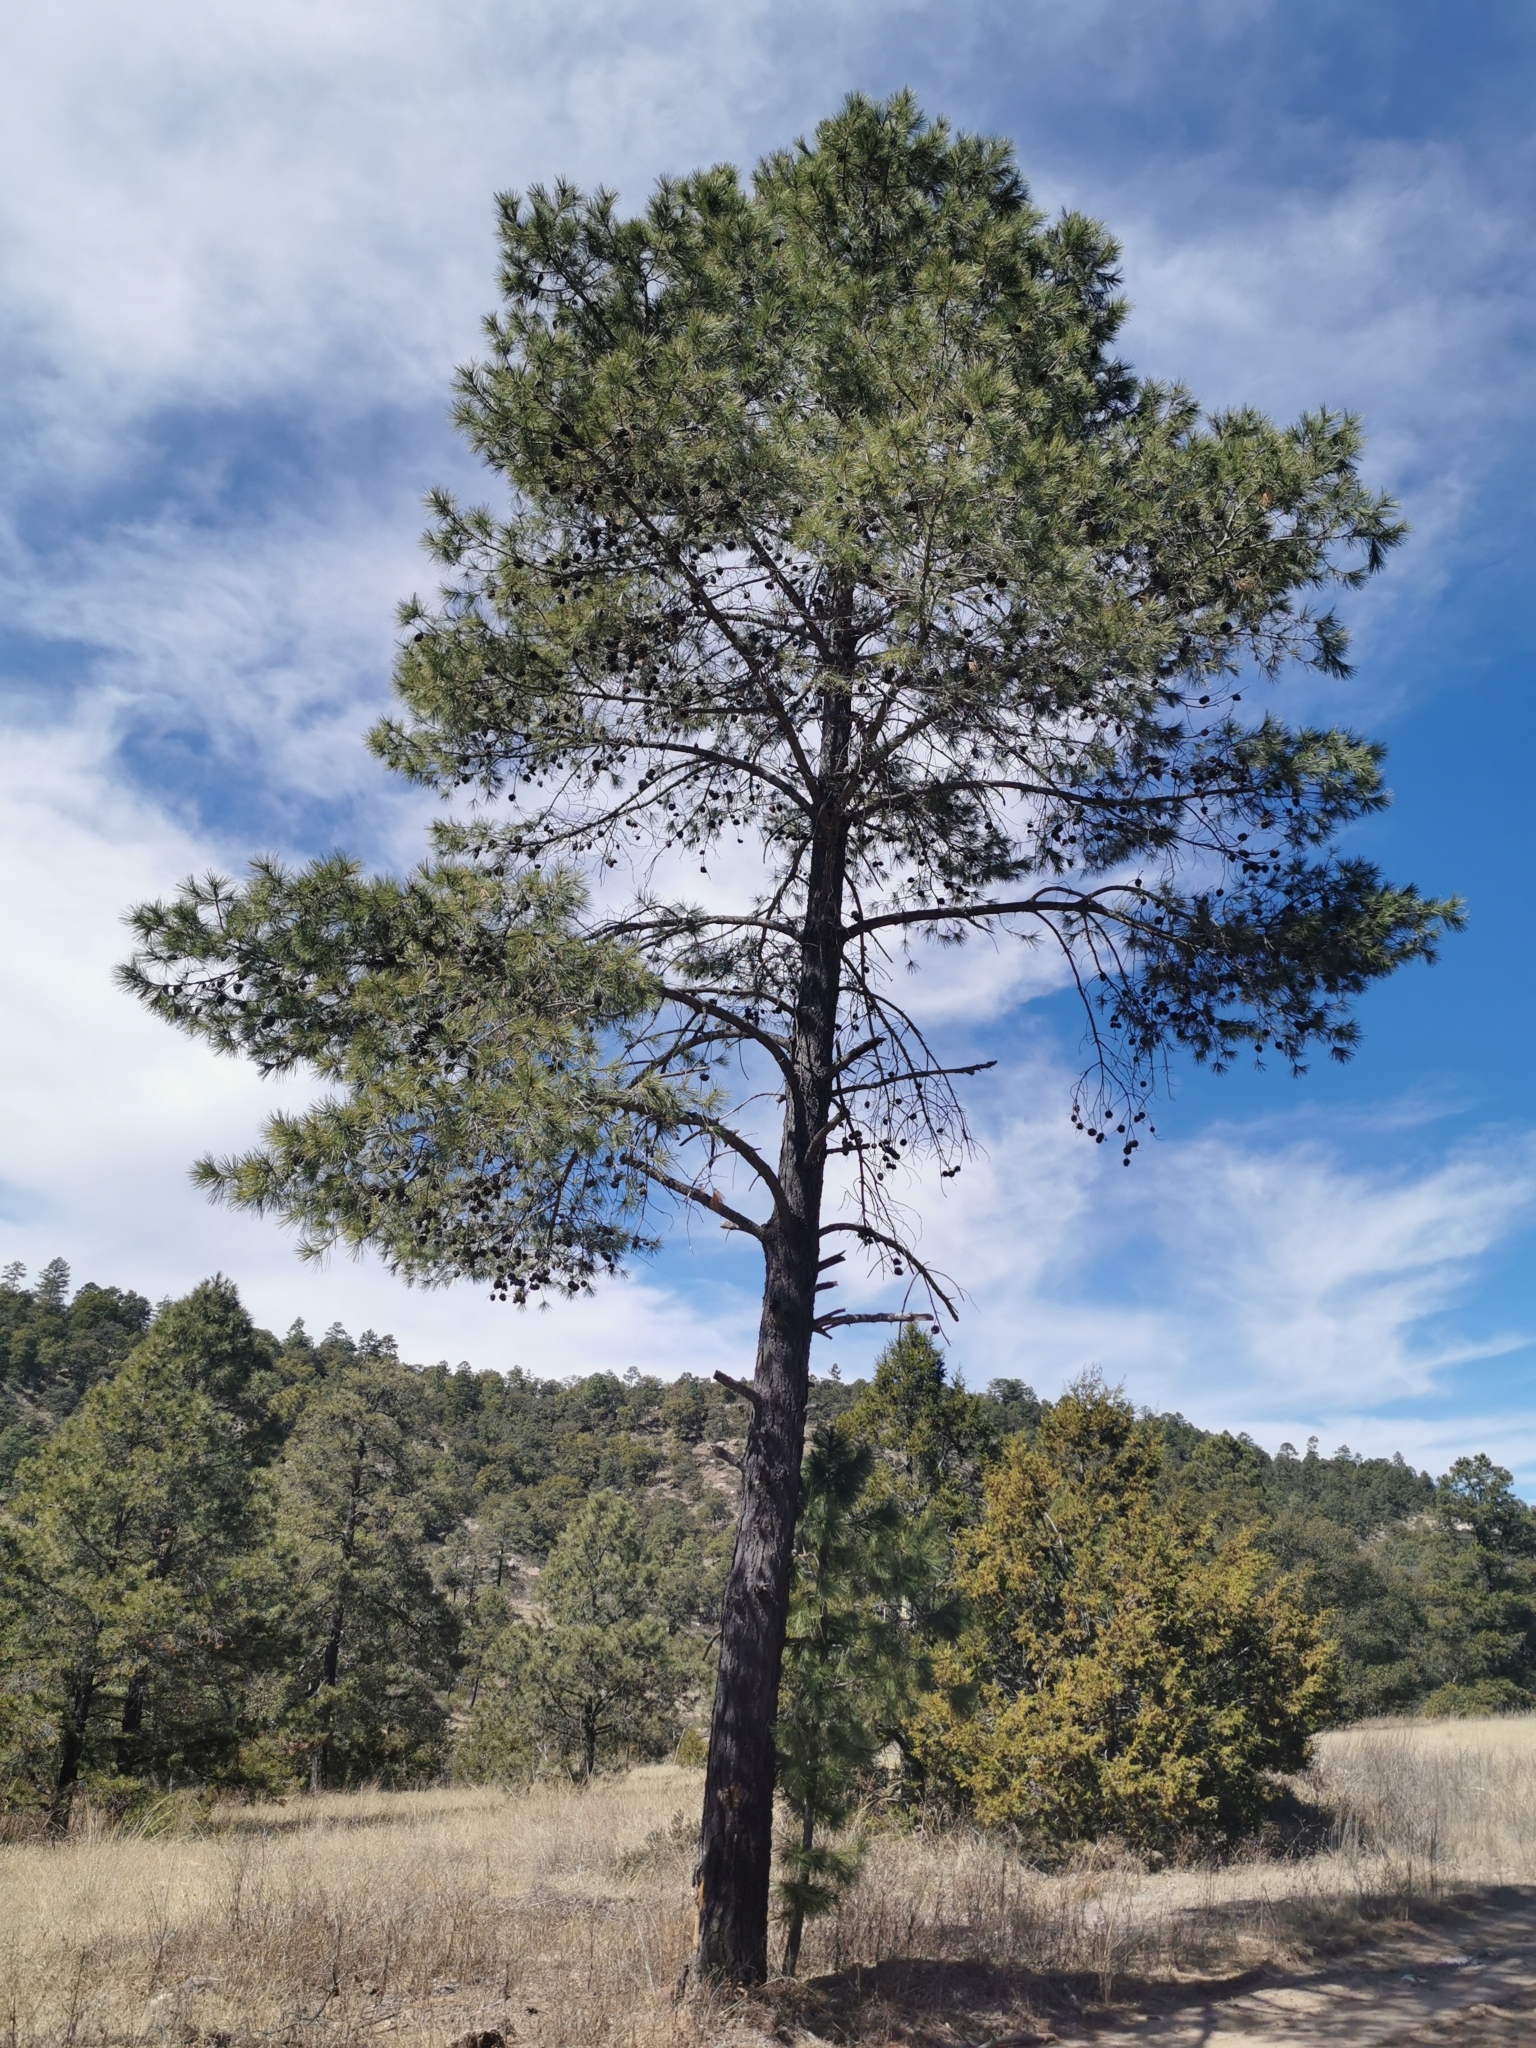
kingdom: Plantae
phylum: Tracheophyta
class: Pinopsida
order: Pinales
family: Pinaceae
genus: Pinus
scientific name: Pinus leiophylla
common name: Chihuahua pine
